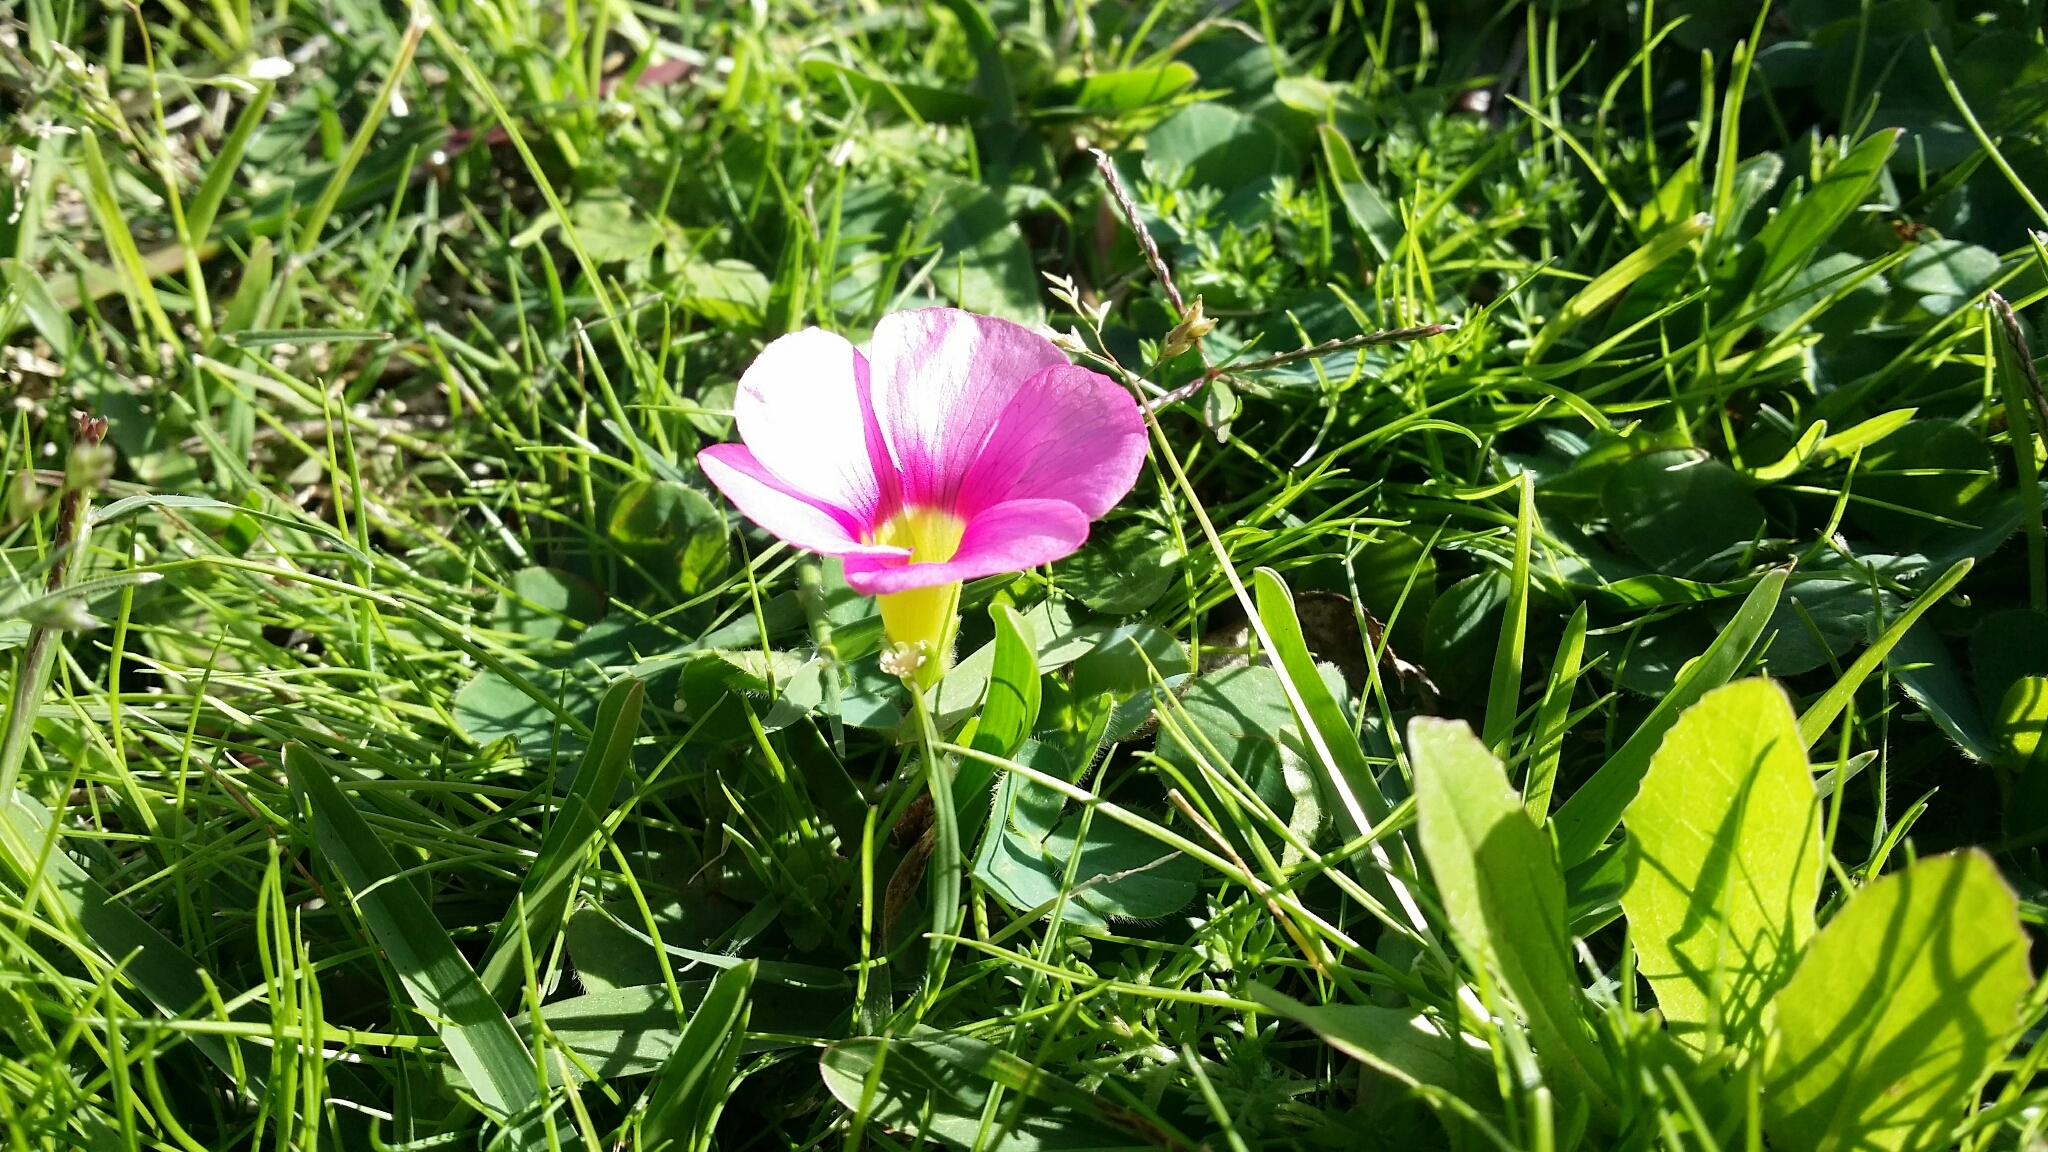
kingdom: Plantae
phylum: Tracheophyta
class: Magnoliopsida
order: Oxalidales
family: Oxalidaceae
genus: Oxalis
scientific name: Oxalis purpurea
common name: Purple woodsorrel
